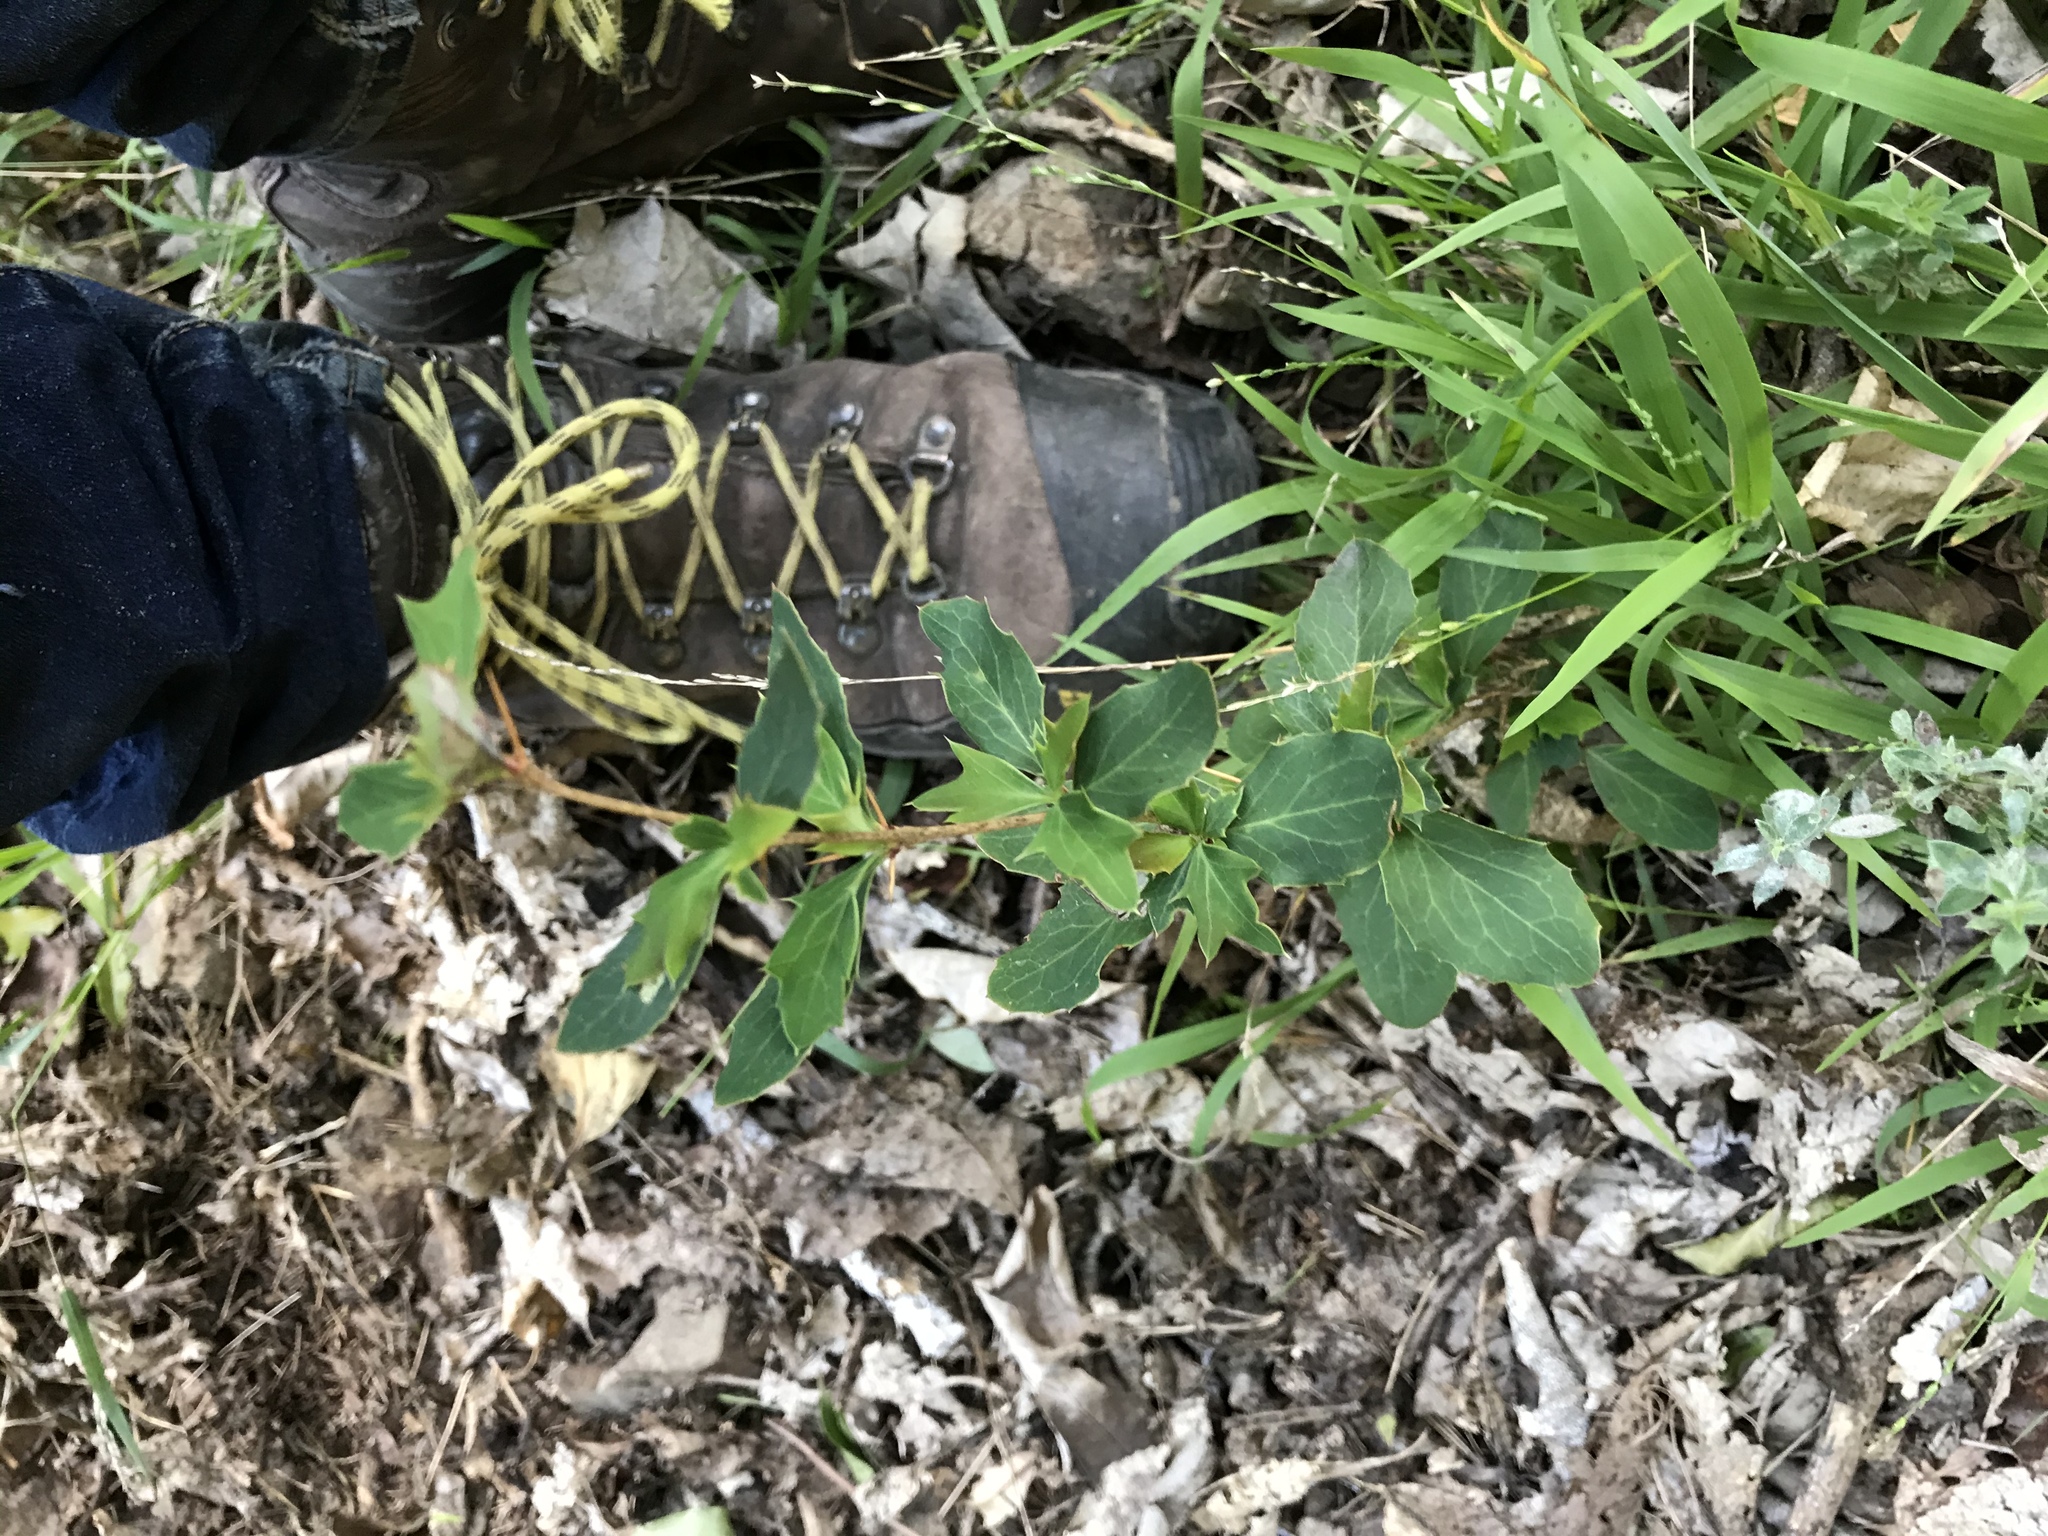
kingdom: Plantae
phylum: Tracheophyta
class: Magnoliopsida
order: Ranunculales
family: Berberidaceae
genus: Berberis
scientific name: Berberis glaucocarpa
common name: Great barberry
